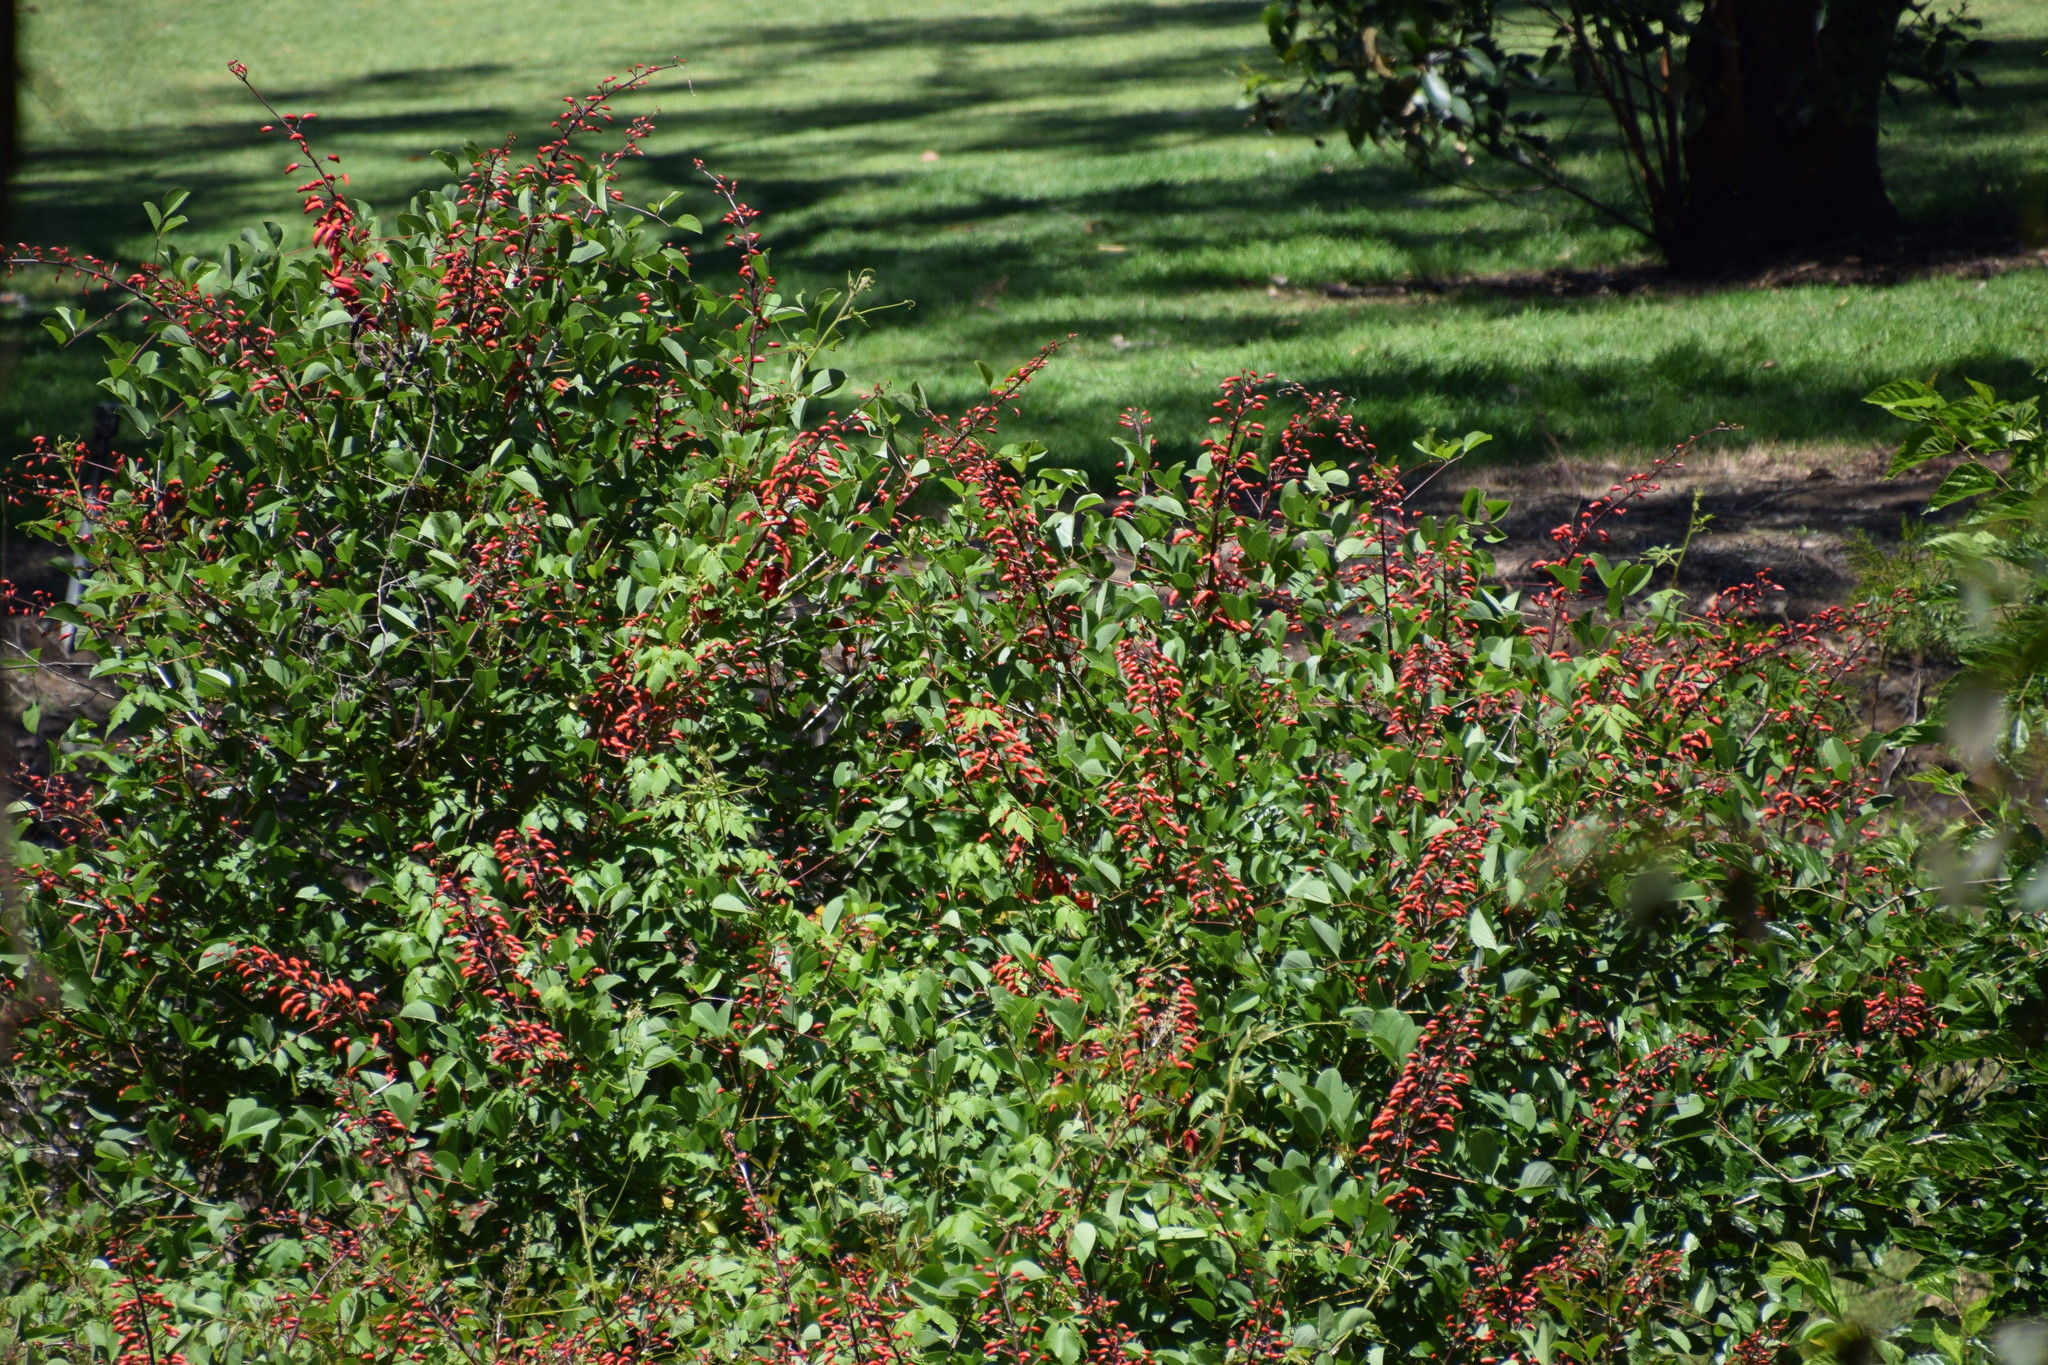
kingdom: Plantae
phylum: Tracheophyta
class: Magnoliopsida
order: Fabales
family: Fabaceae
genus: Erythrina
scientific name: Erythrina crista-galli
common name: Cockspur coral tree
